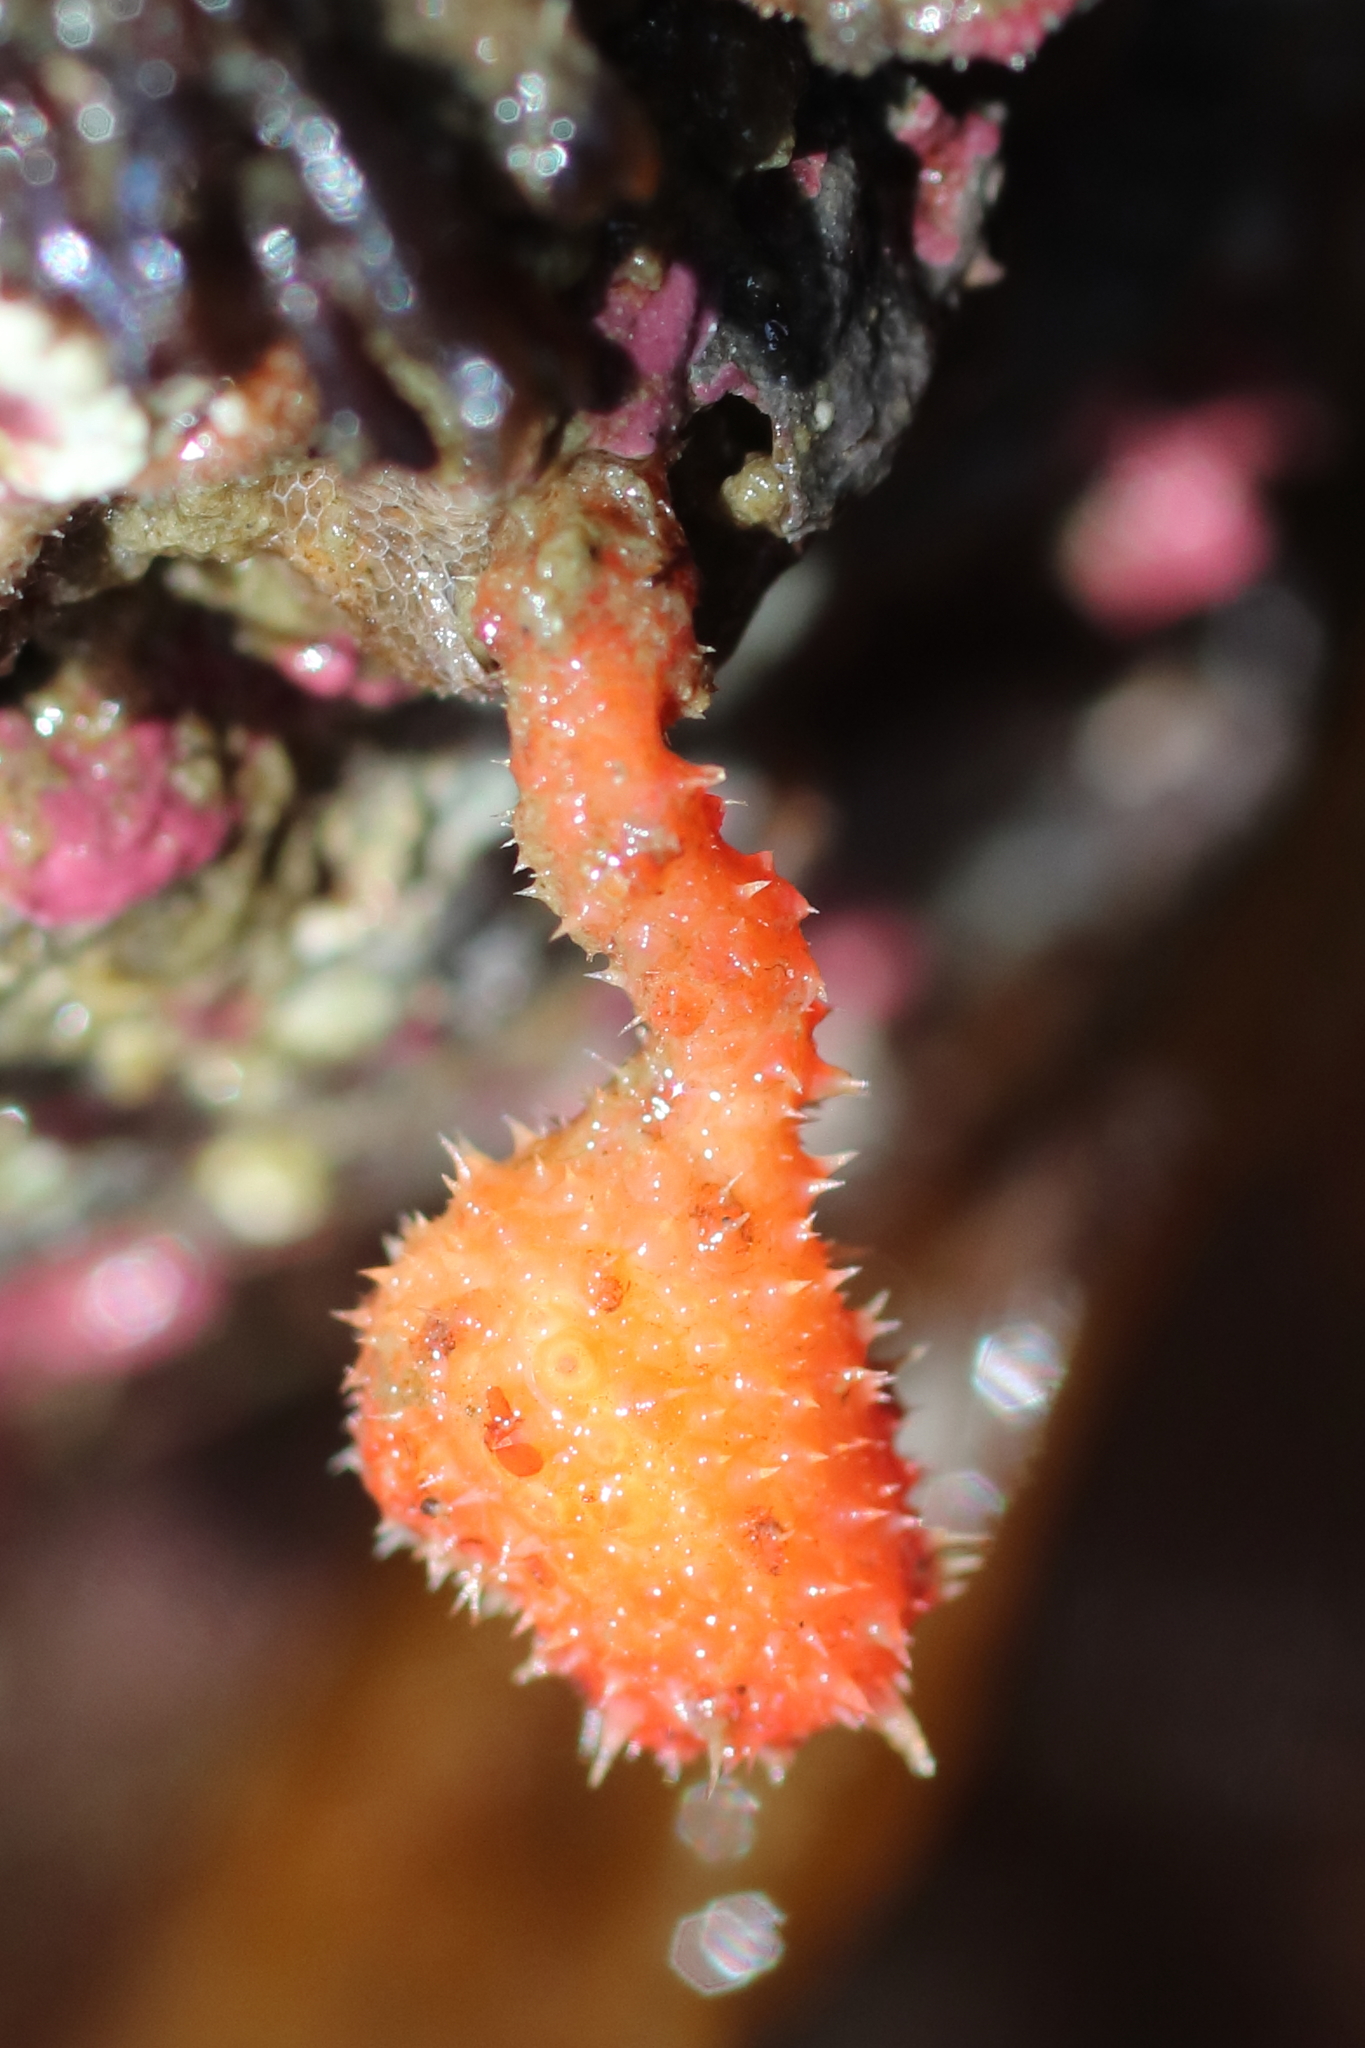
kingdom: Animalia
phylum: Chordata
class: Ascidiacea
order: Stolidobranchia
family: Pyuridae
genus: Boltenia
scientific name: Boltenia villosa
